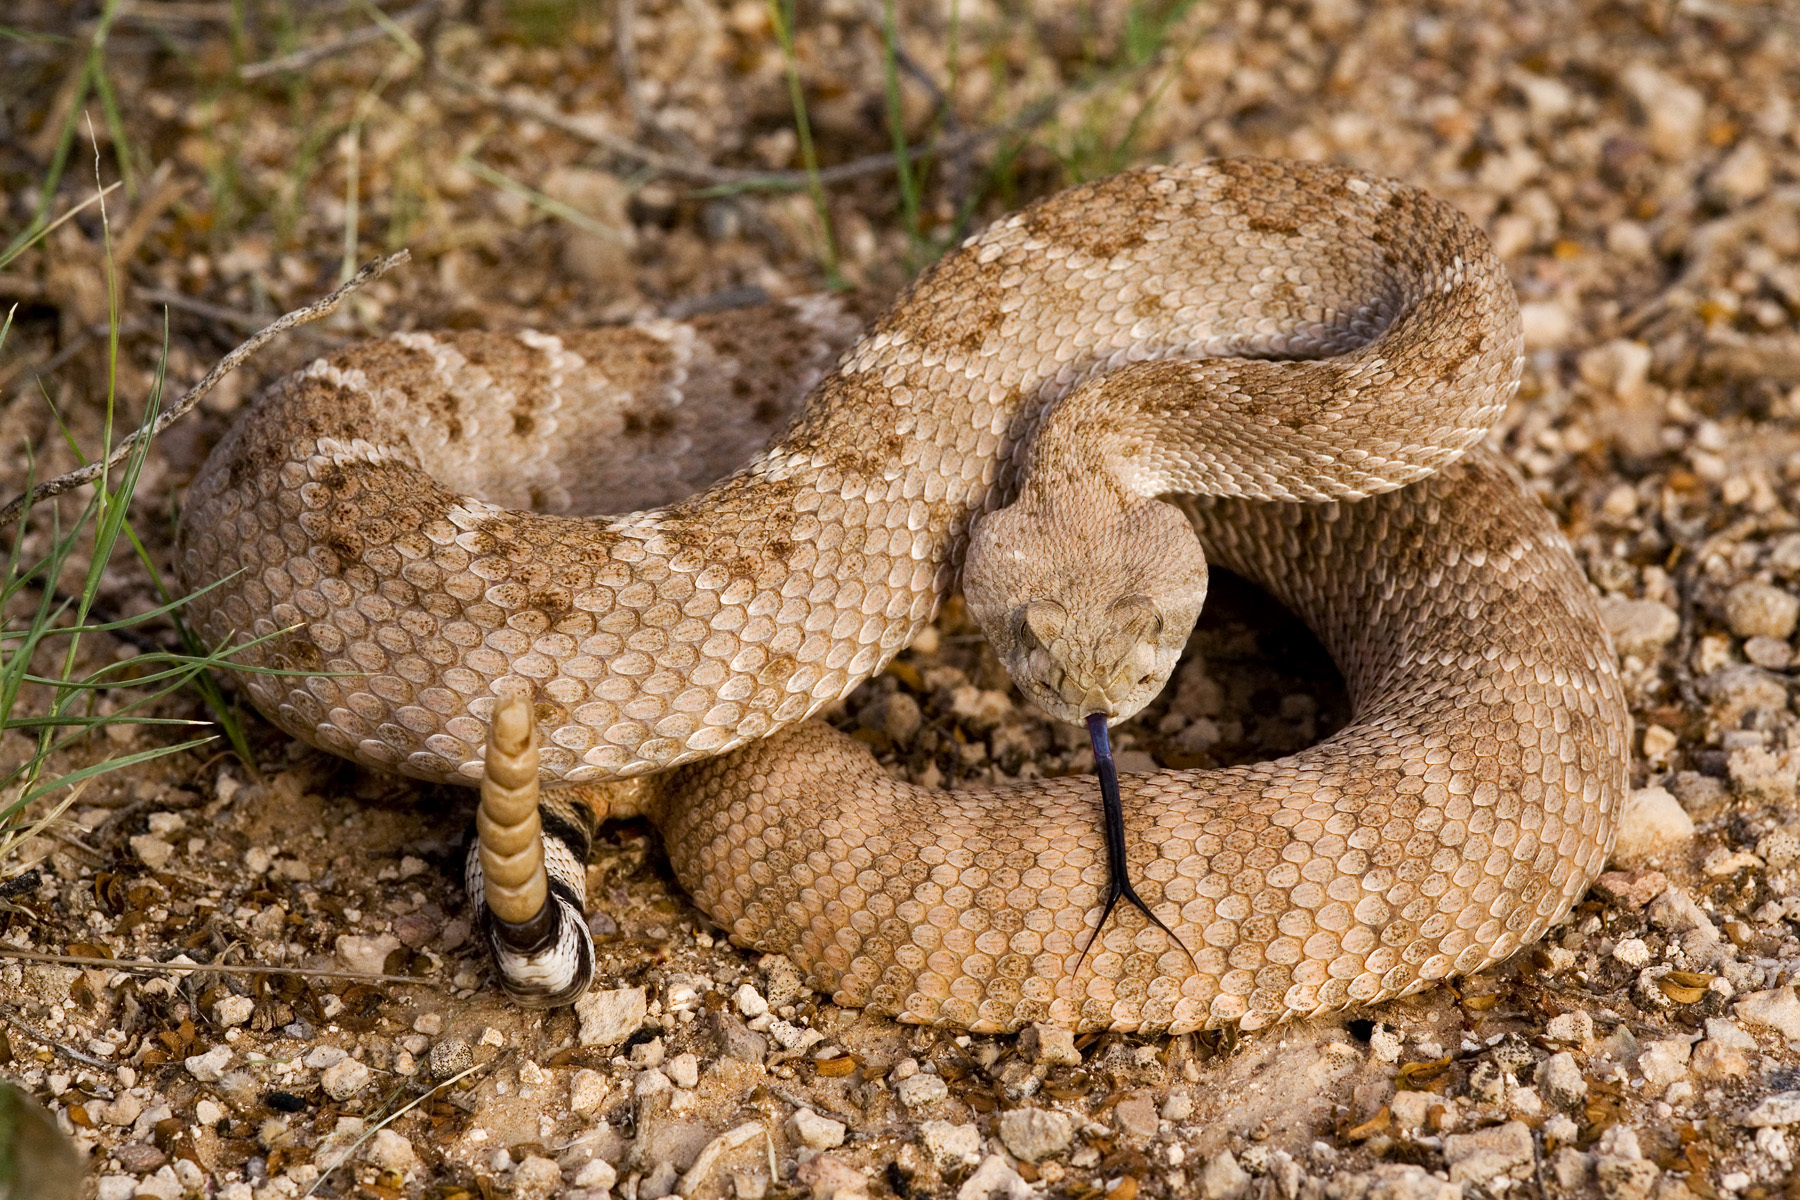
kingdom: Animalia
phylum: Chordata
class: Squamata
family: Viperidae
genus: Crotalus
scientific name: Crotalus atrox
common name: Western diamond-backed rattlesnake
